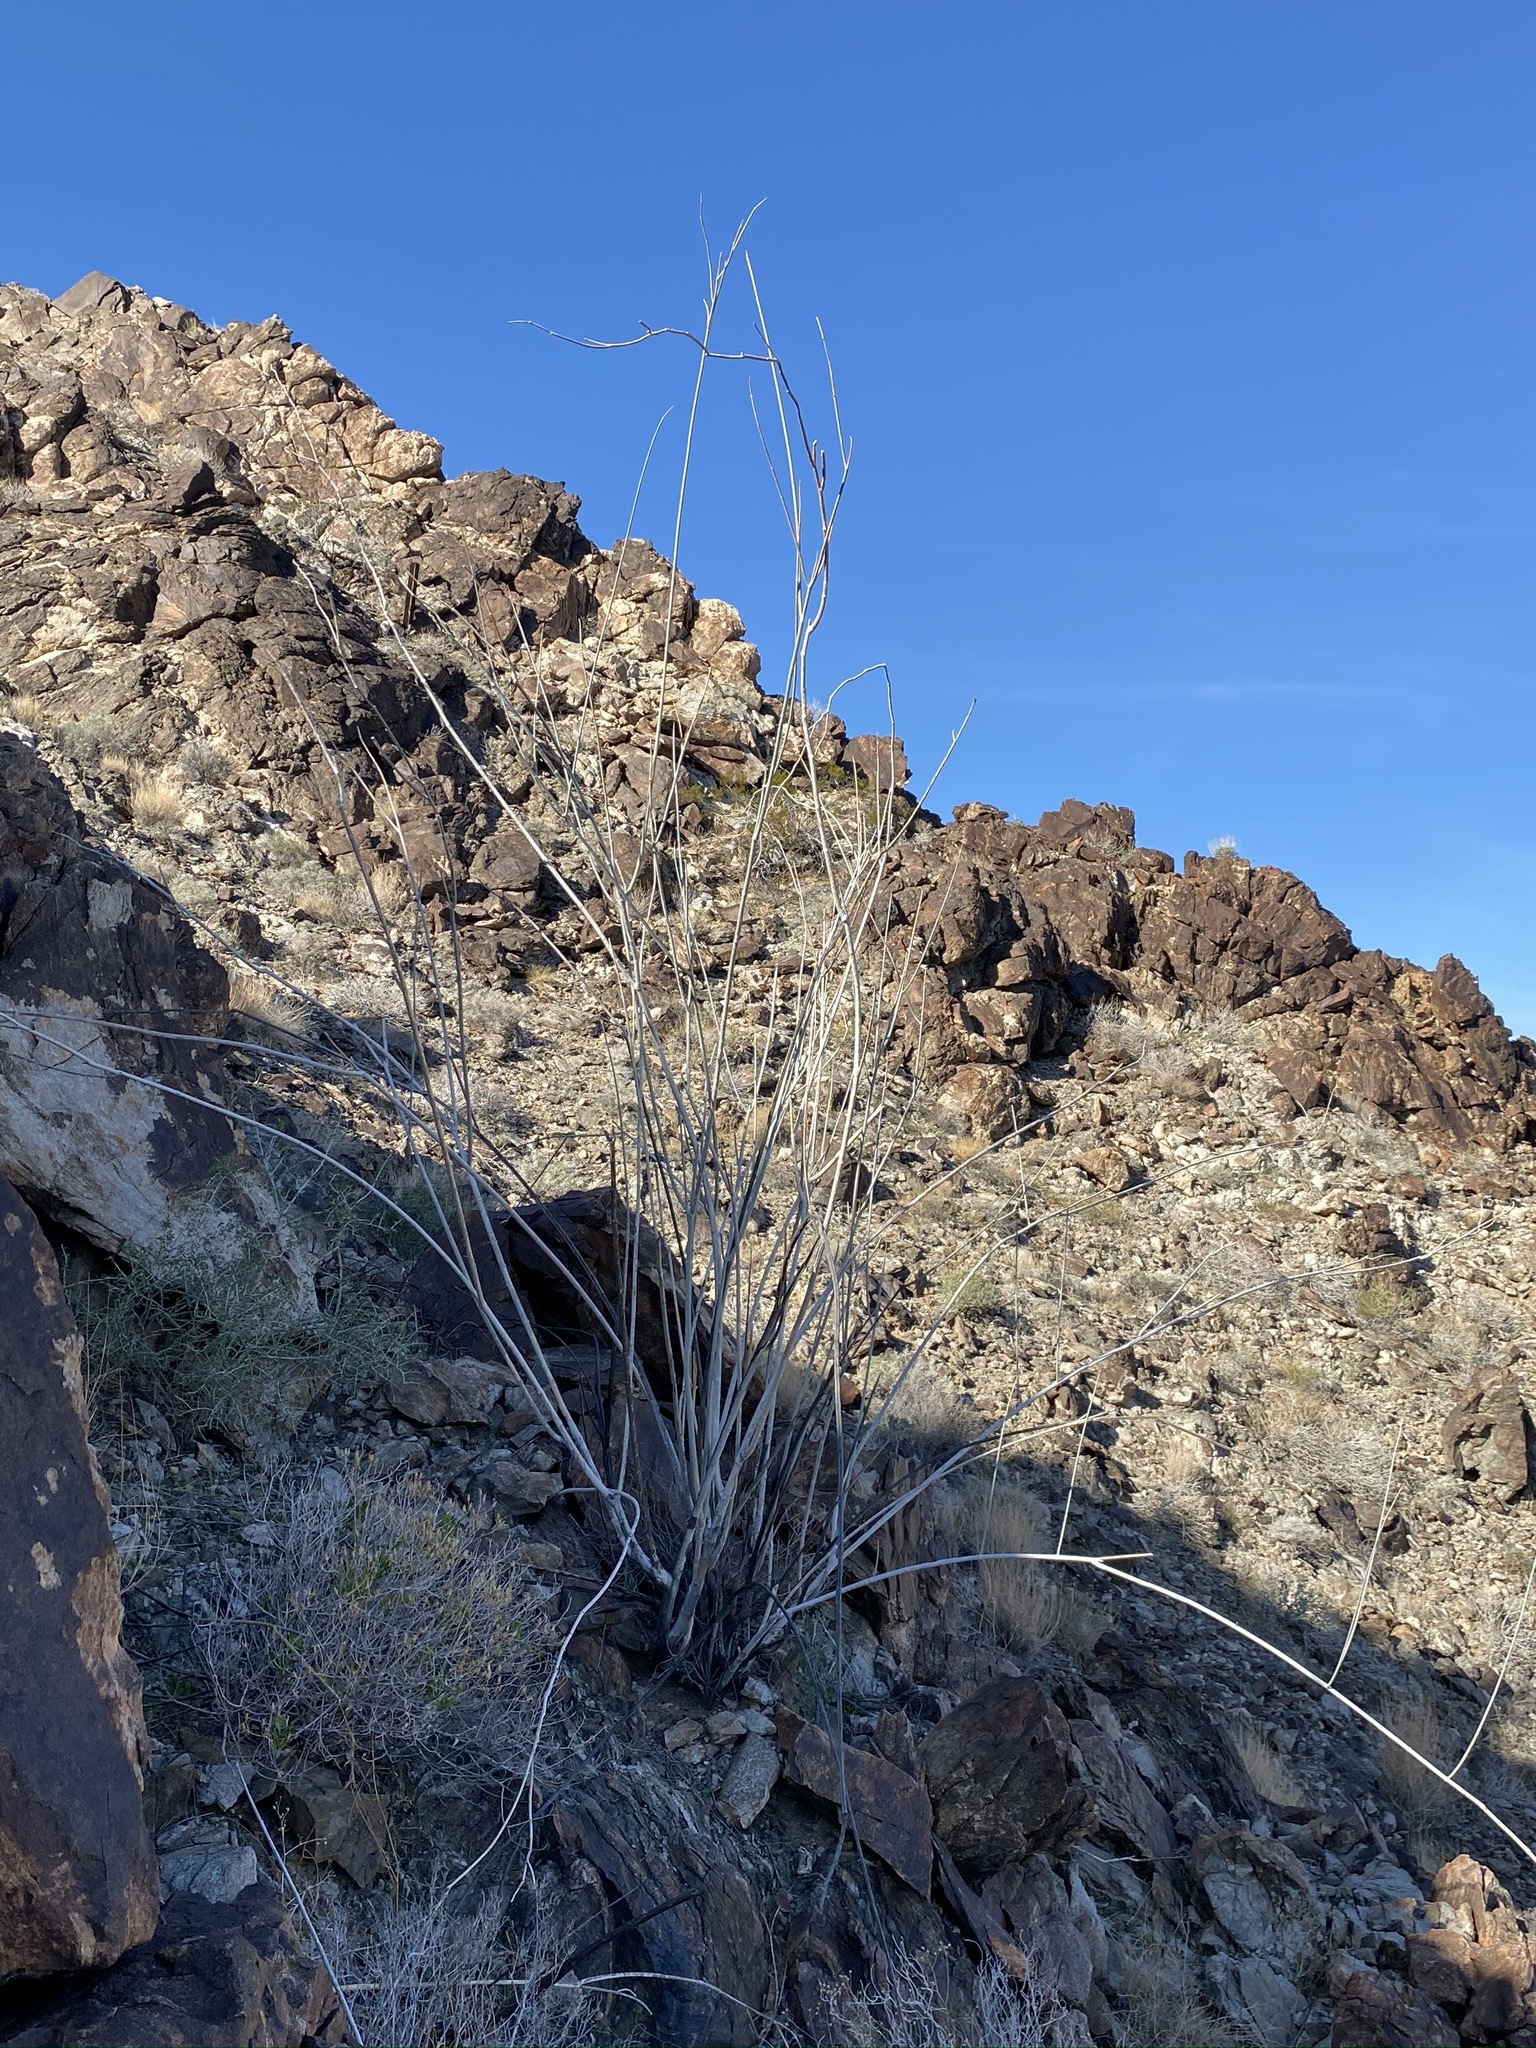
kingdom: Plantae
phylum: Tracheophyta
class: Magnoliopsida
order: Gentianales
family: Apocynaceae
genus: Asclepias
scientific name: Asclepias albicans
